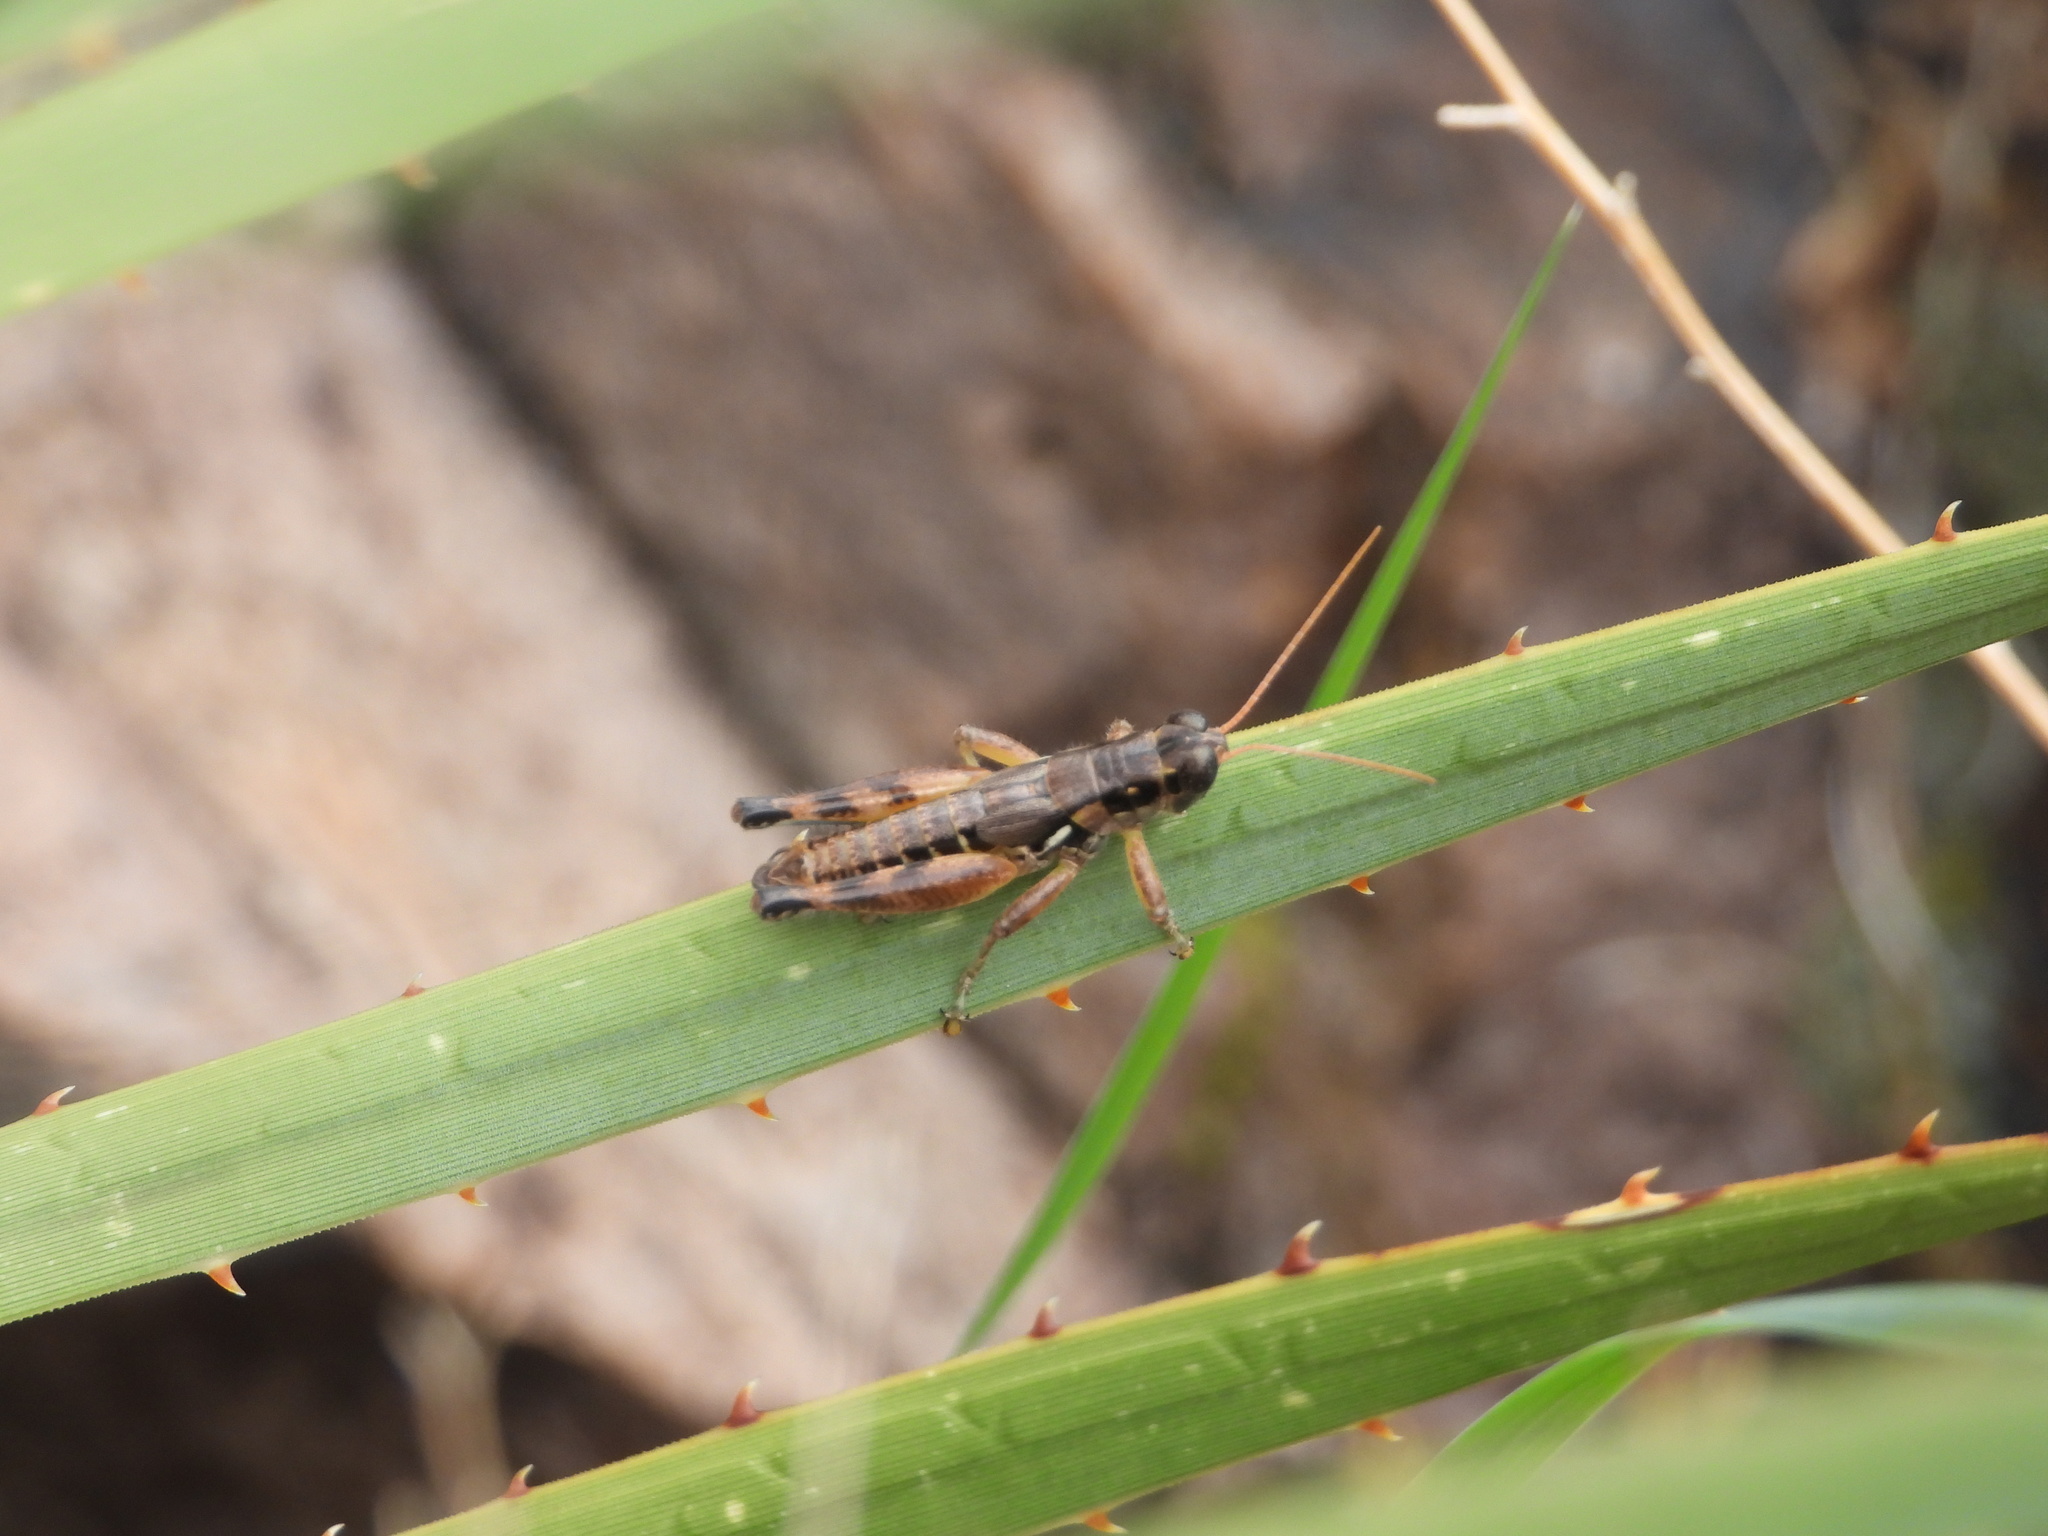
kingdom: Animalia
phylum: Arthropoda
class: Insecta
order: Orthoptera
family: Acrididae
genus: Melanoplus
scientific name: Melanoplus aridus
